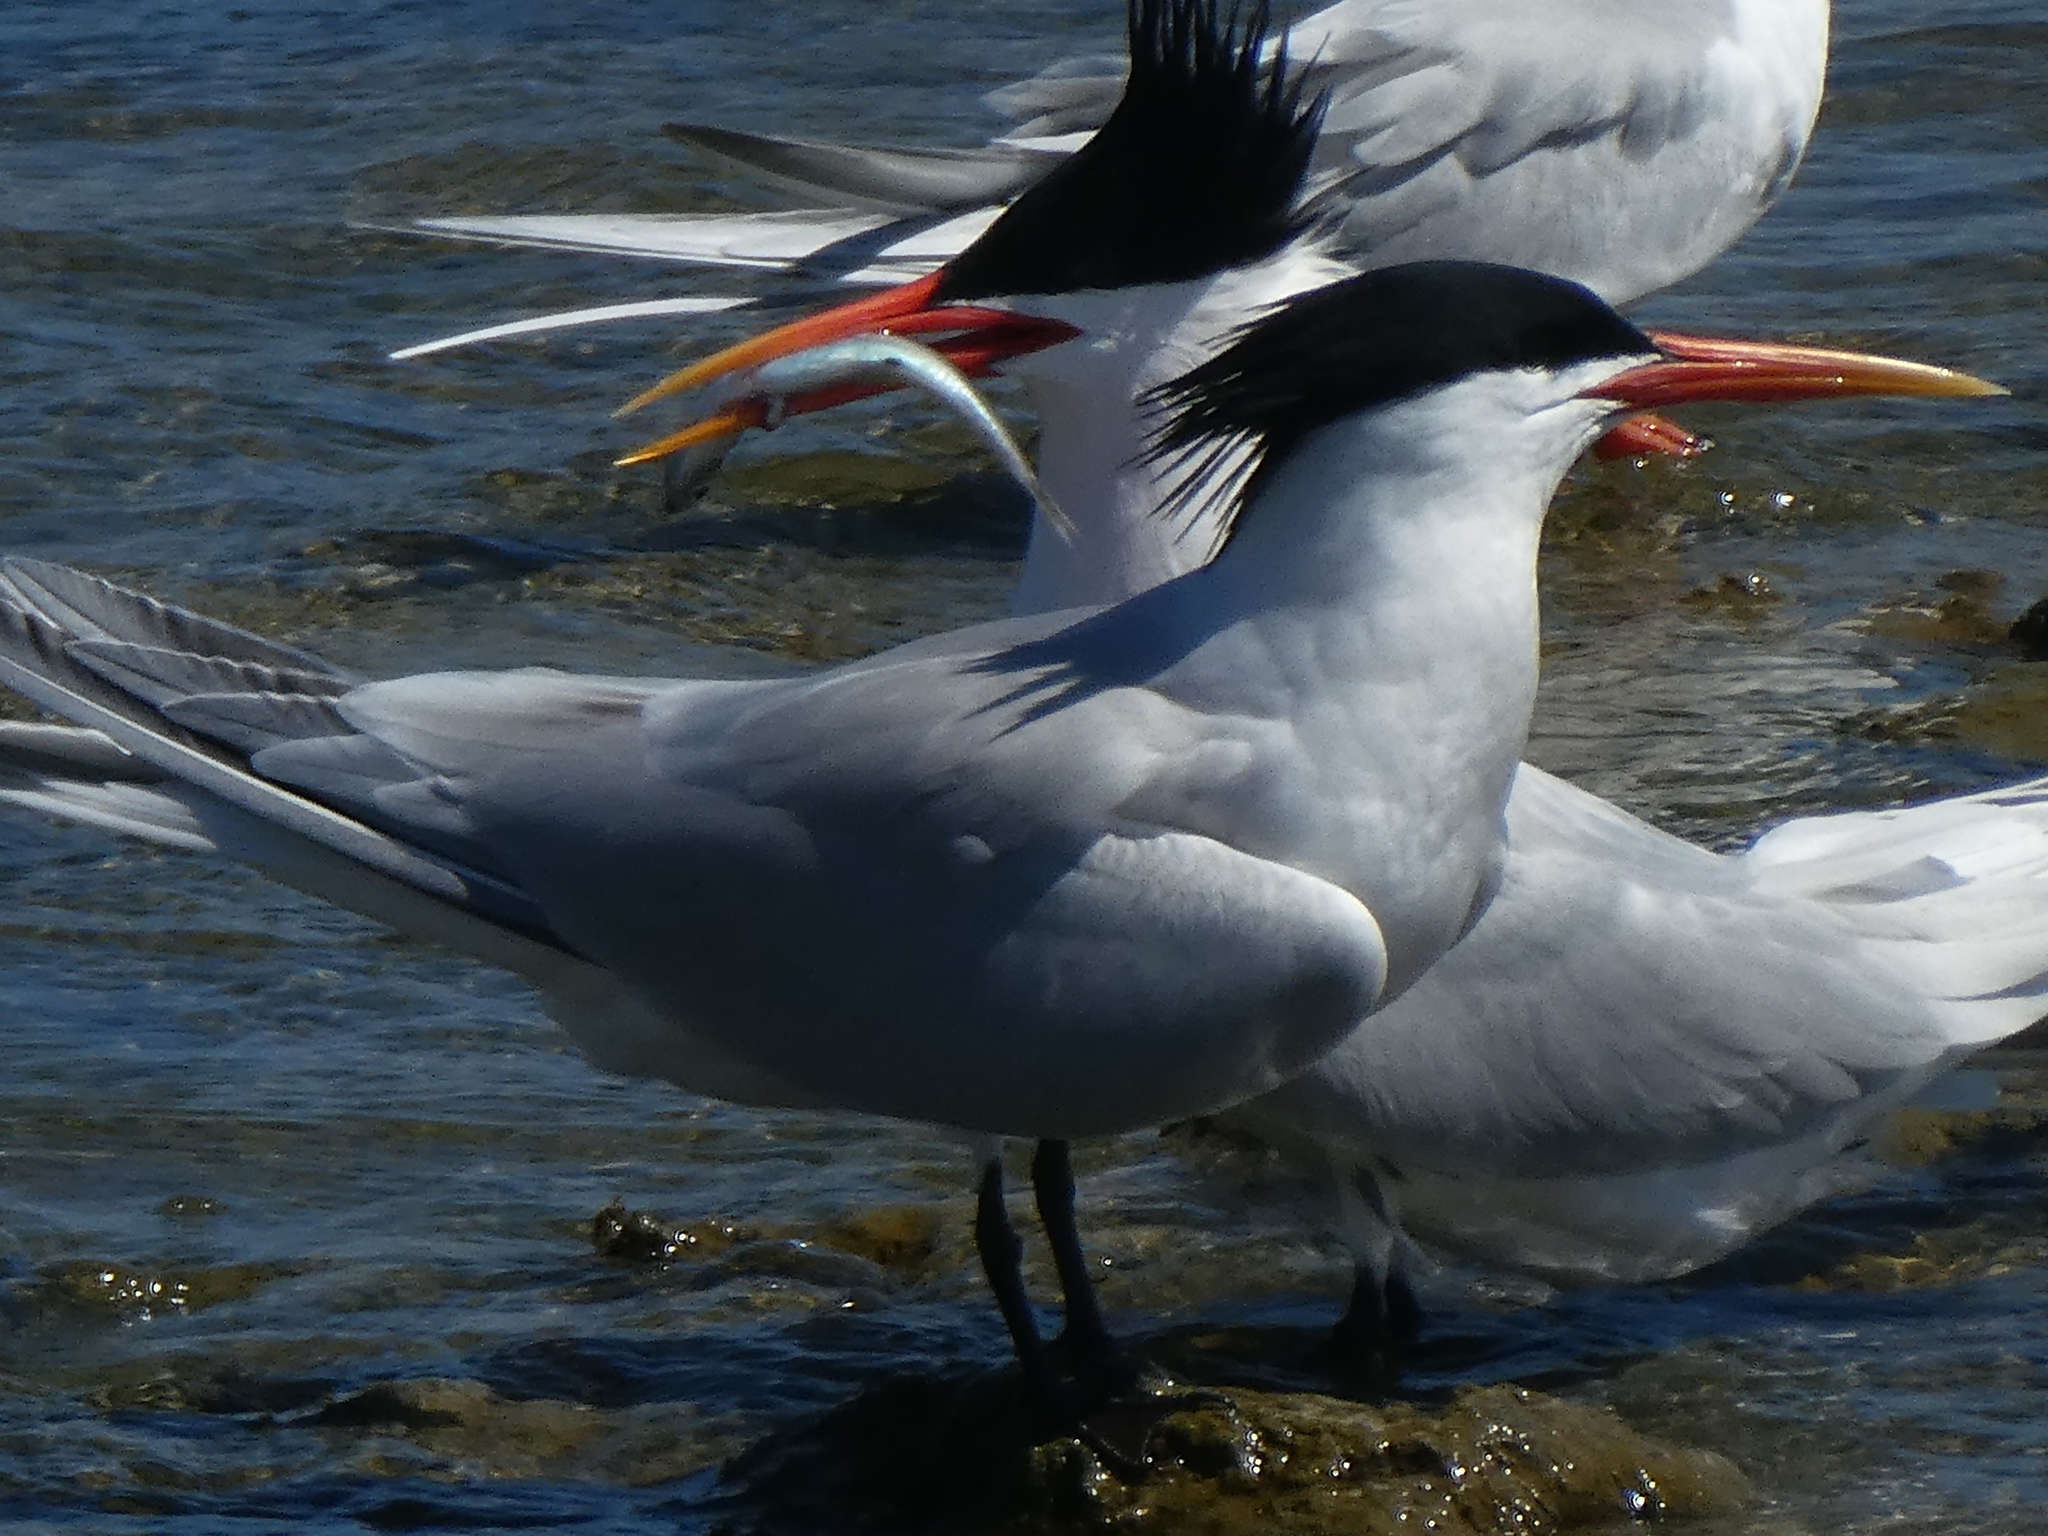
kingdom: Animalia
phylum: Chordata
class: Aves
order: Charadriiformes
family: Laridae
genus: Thalasseus
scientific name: Thalasseus elegans
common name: Elegant tern
